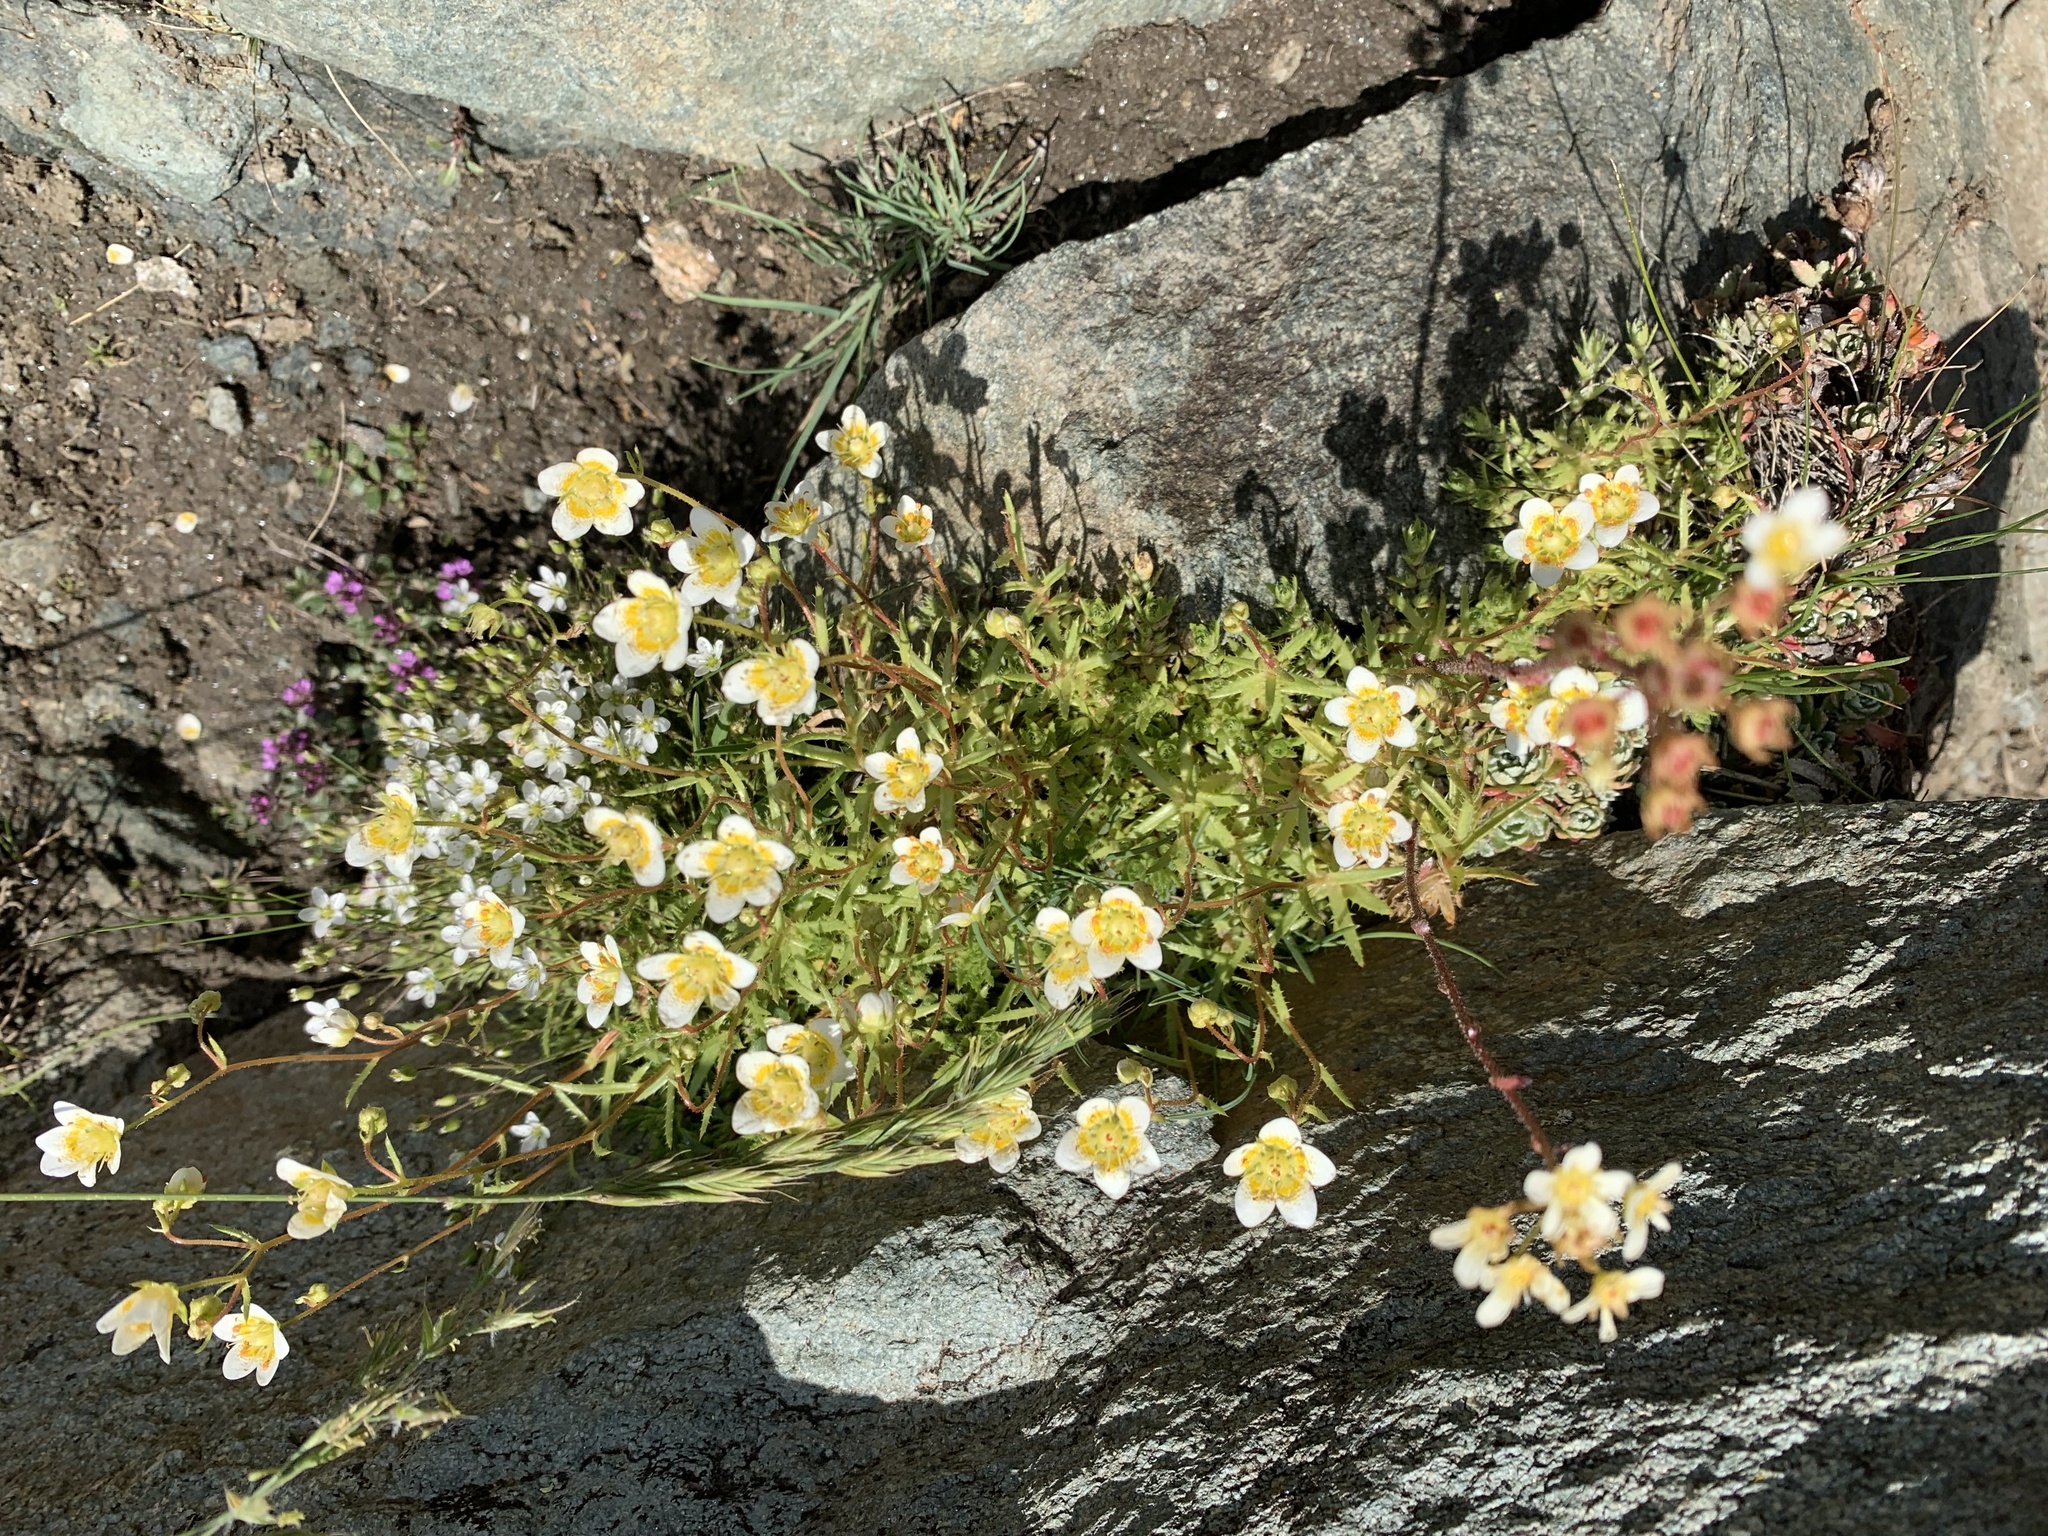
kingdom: Plantae
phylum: Tracheophyta
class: Magnoliopsida
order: Saxifragales
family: Saxifragaceae
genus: Saxifraga
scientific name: Saxifraga aspera
